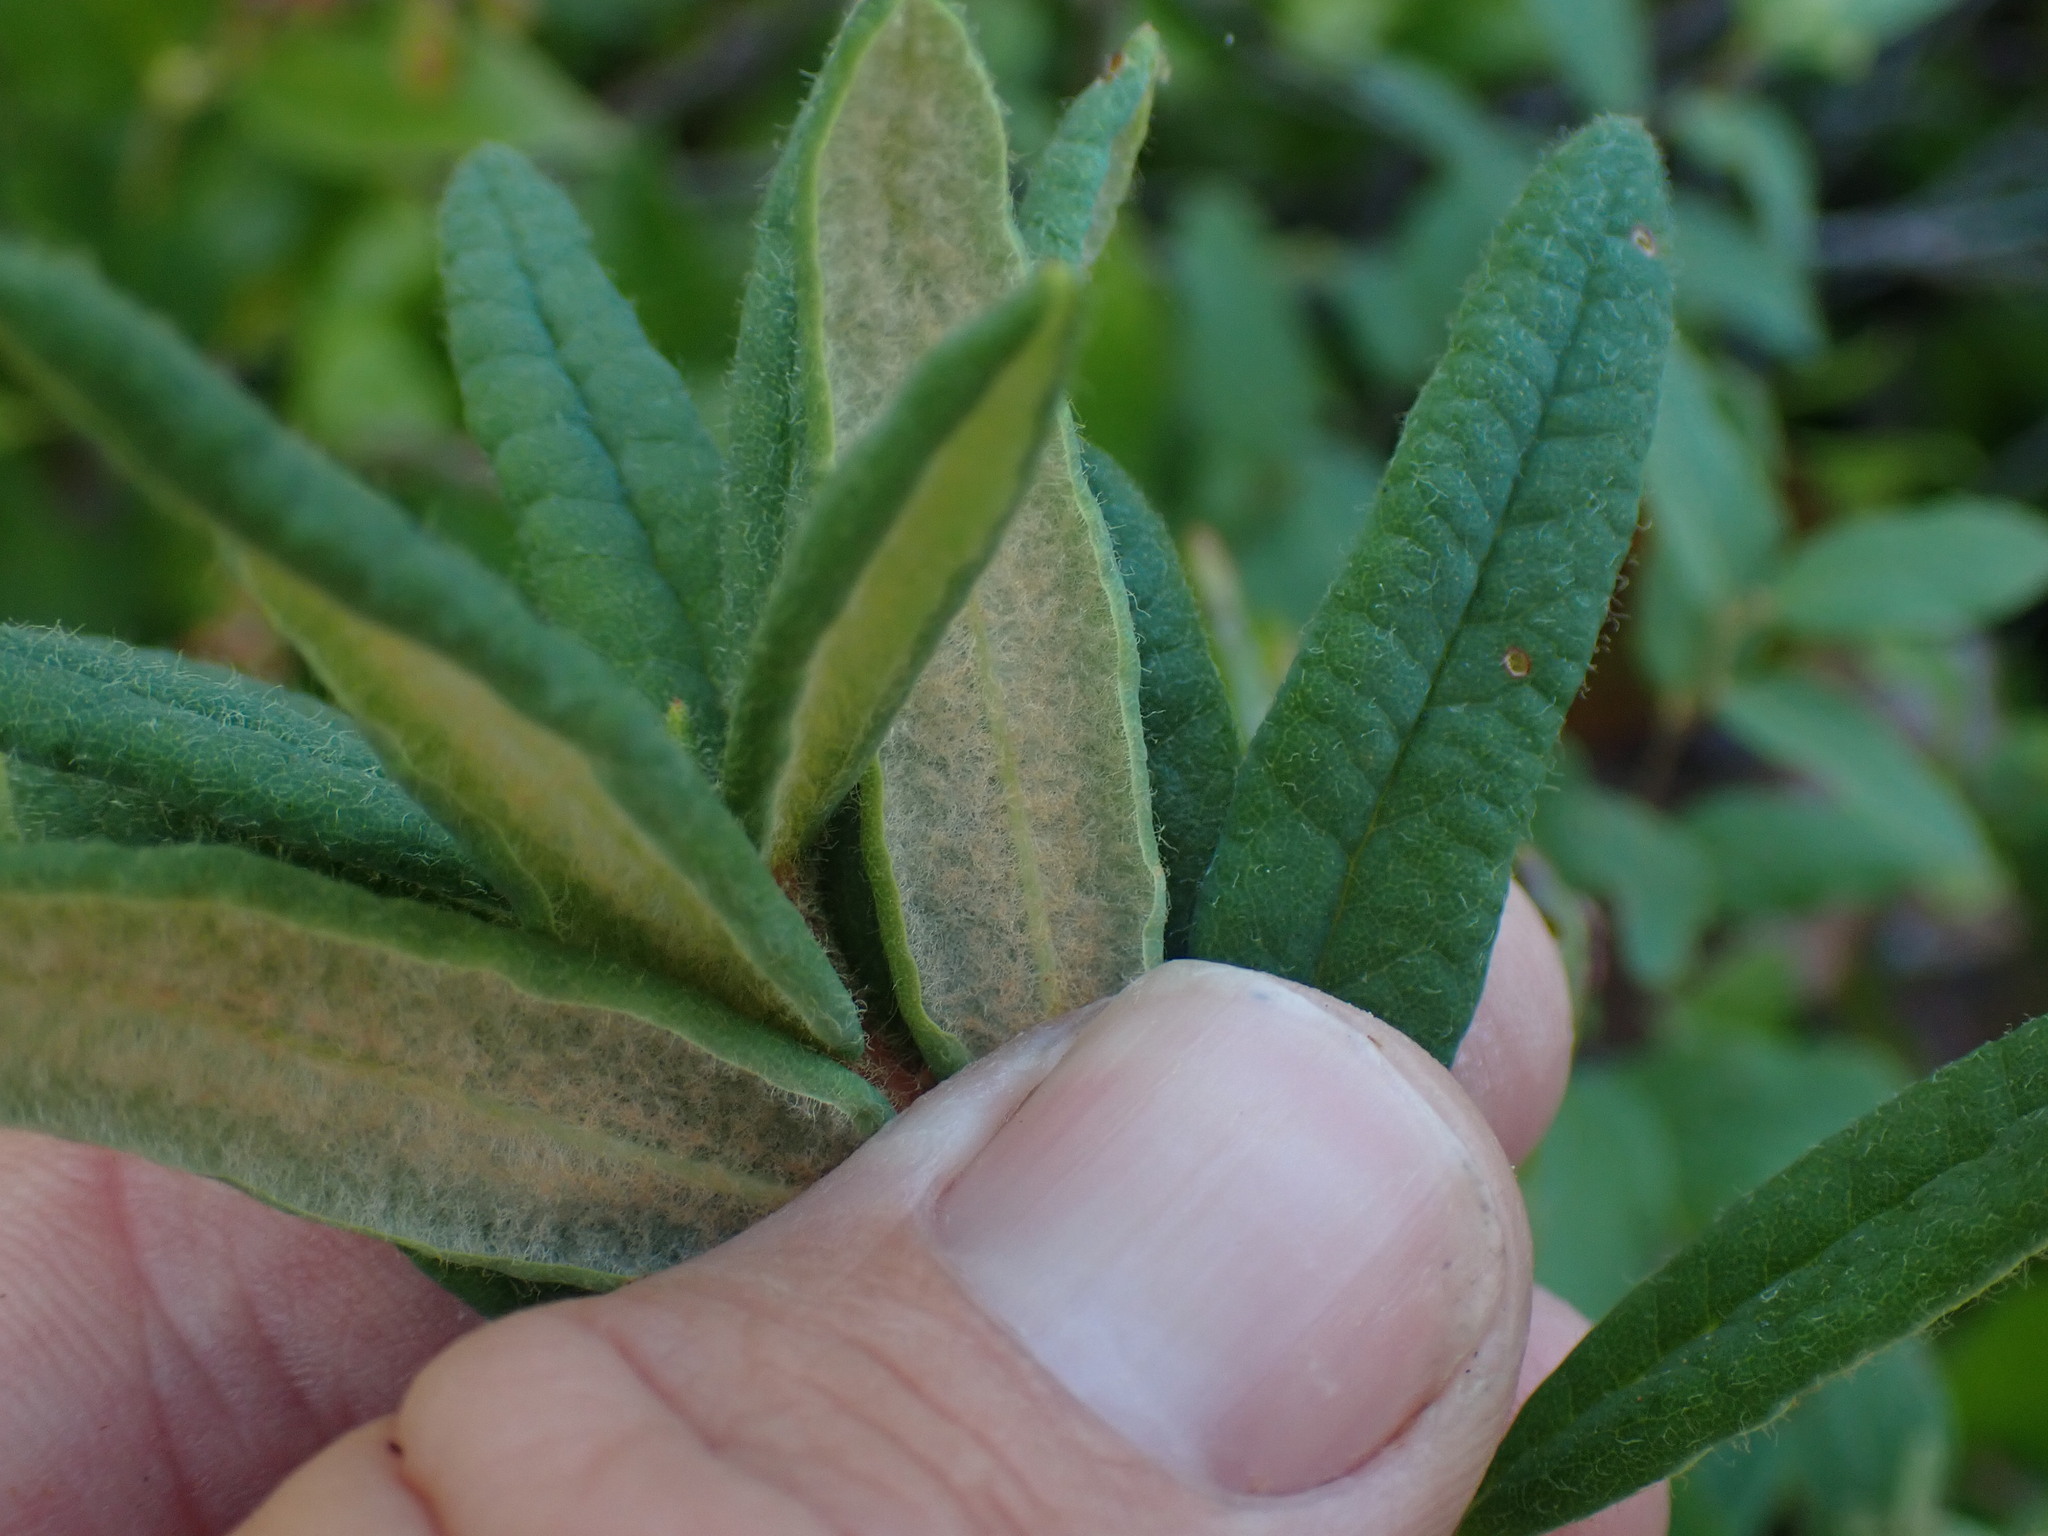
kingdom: Plantae
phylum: Tracheophyta
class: Magnoliopsida
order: Ericales
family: Ericaceae
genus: Rhododendron
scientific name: Rhododendron groenlandicum
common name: Bog labrador tea
